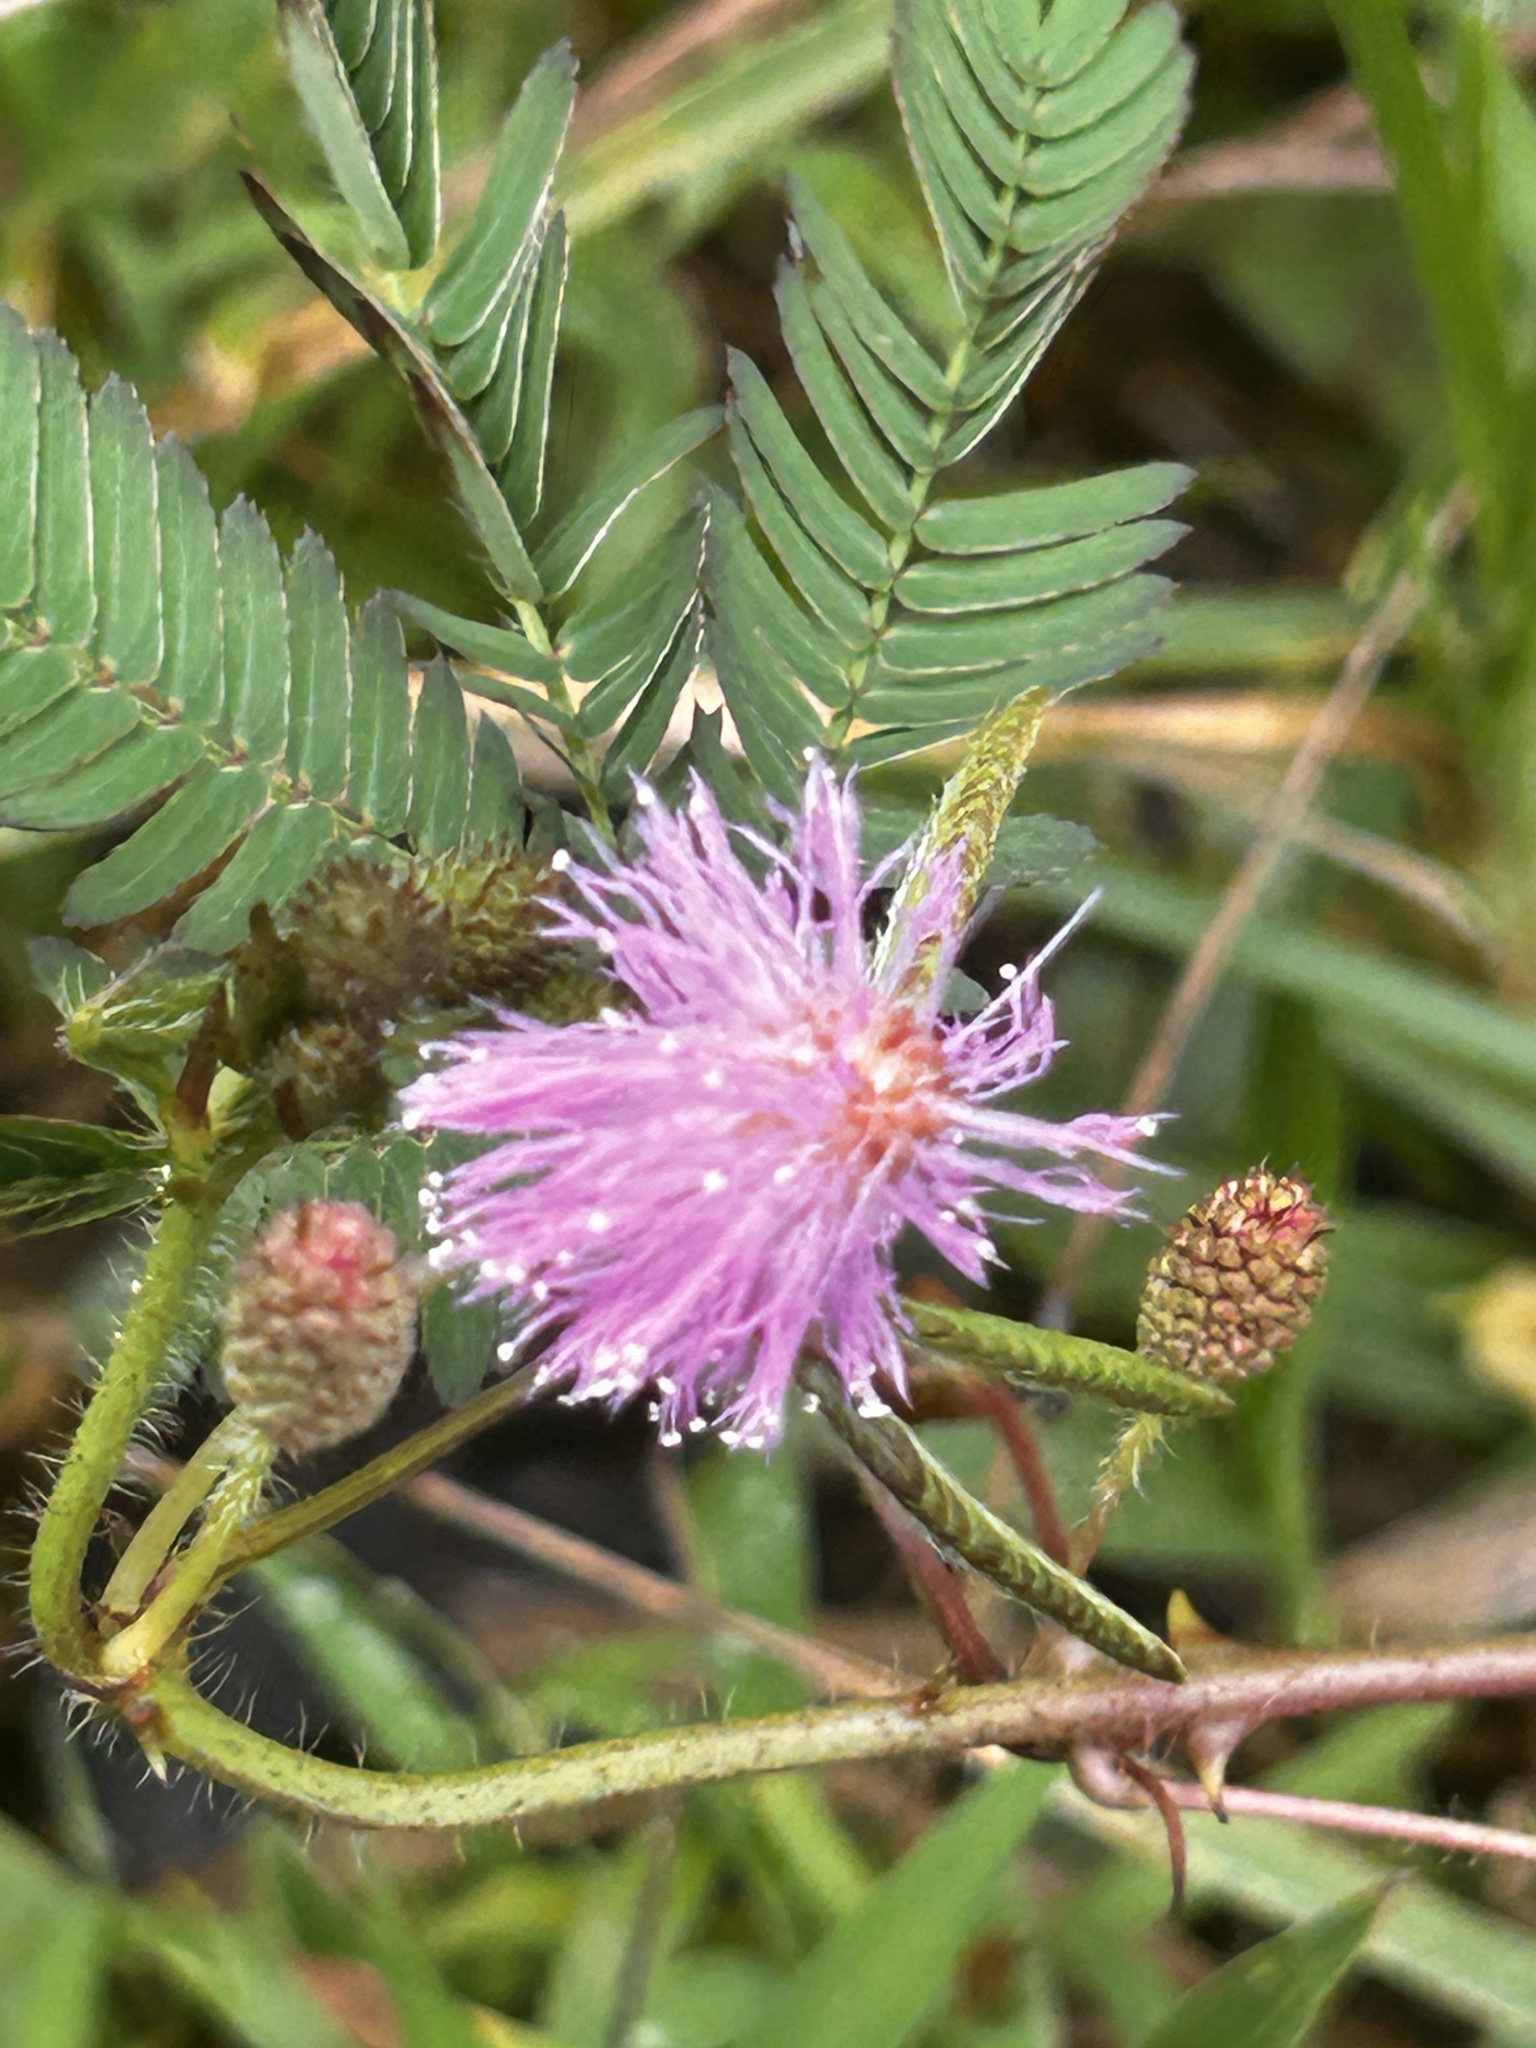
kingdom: Plantae
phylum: Tracheophyta
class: Magnoliopsida
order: Fabales
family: Fabaceae
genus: Mimosa
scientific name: Mimosa pudica
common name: Sensitive plant
